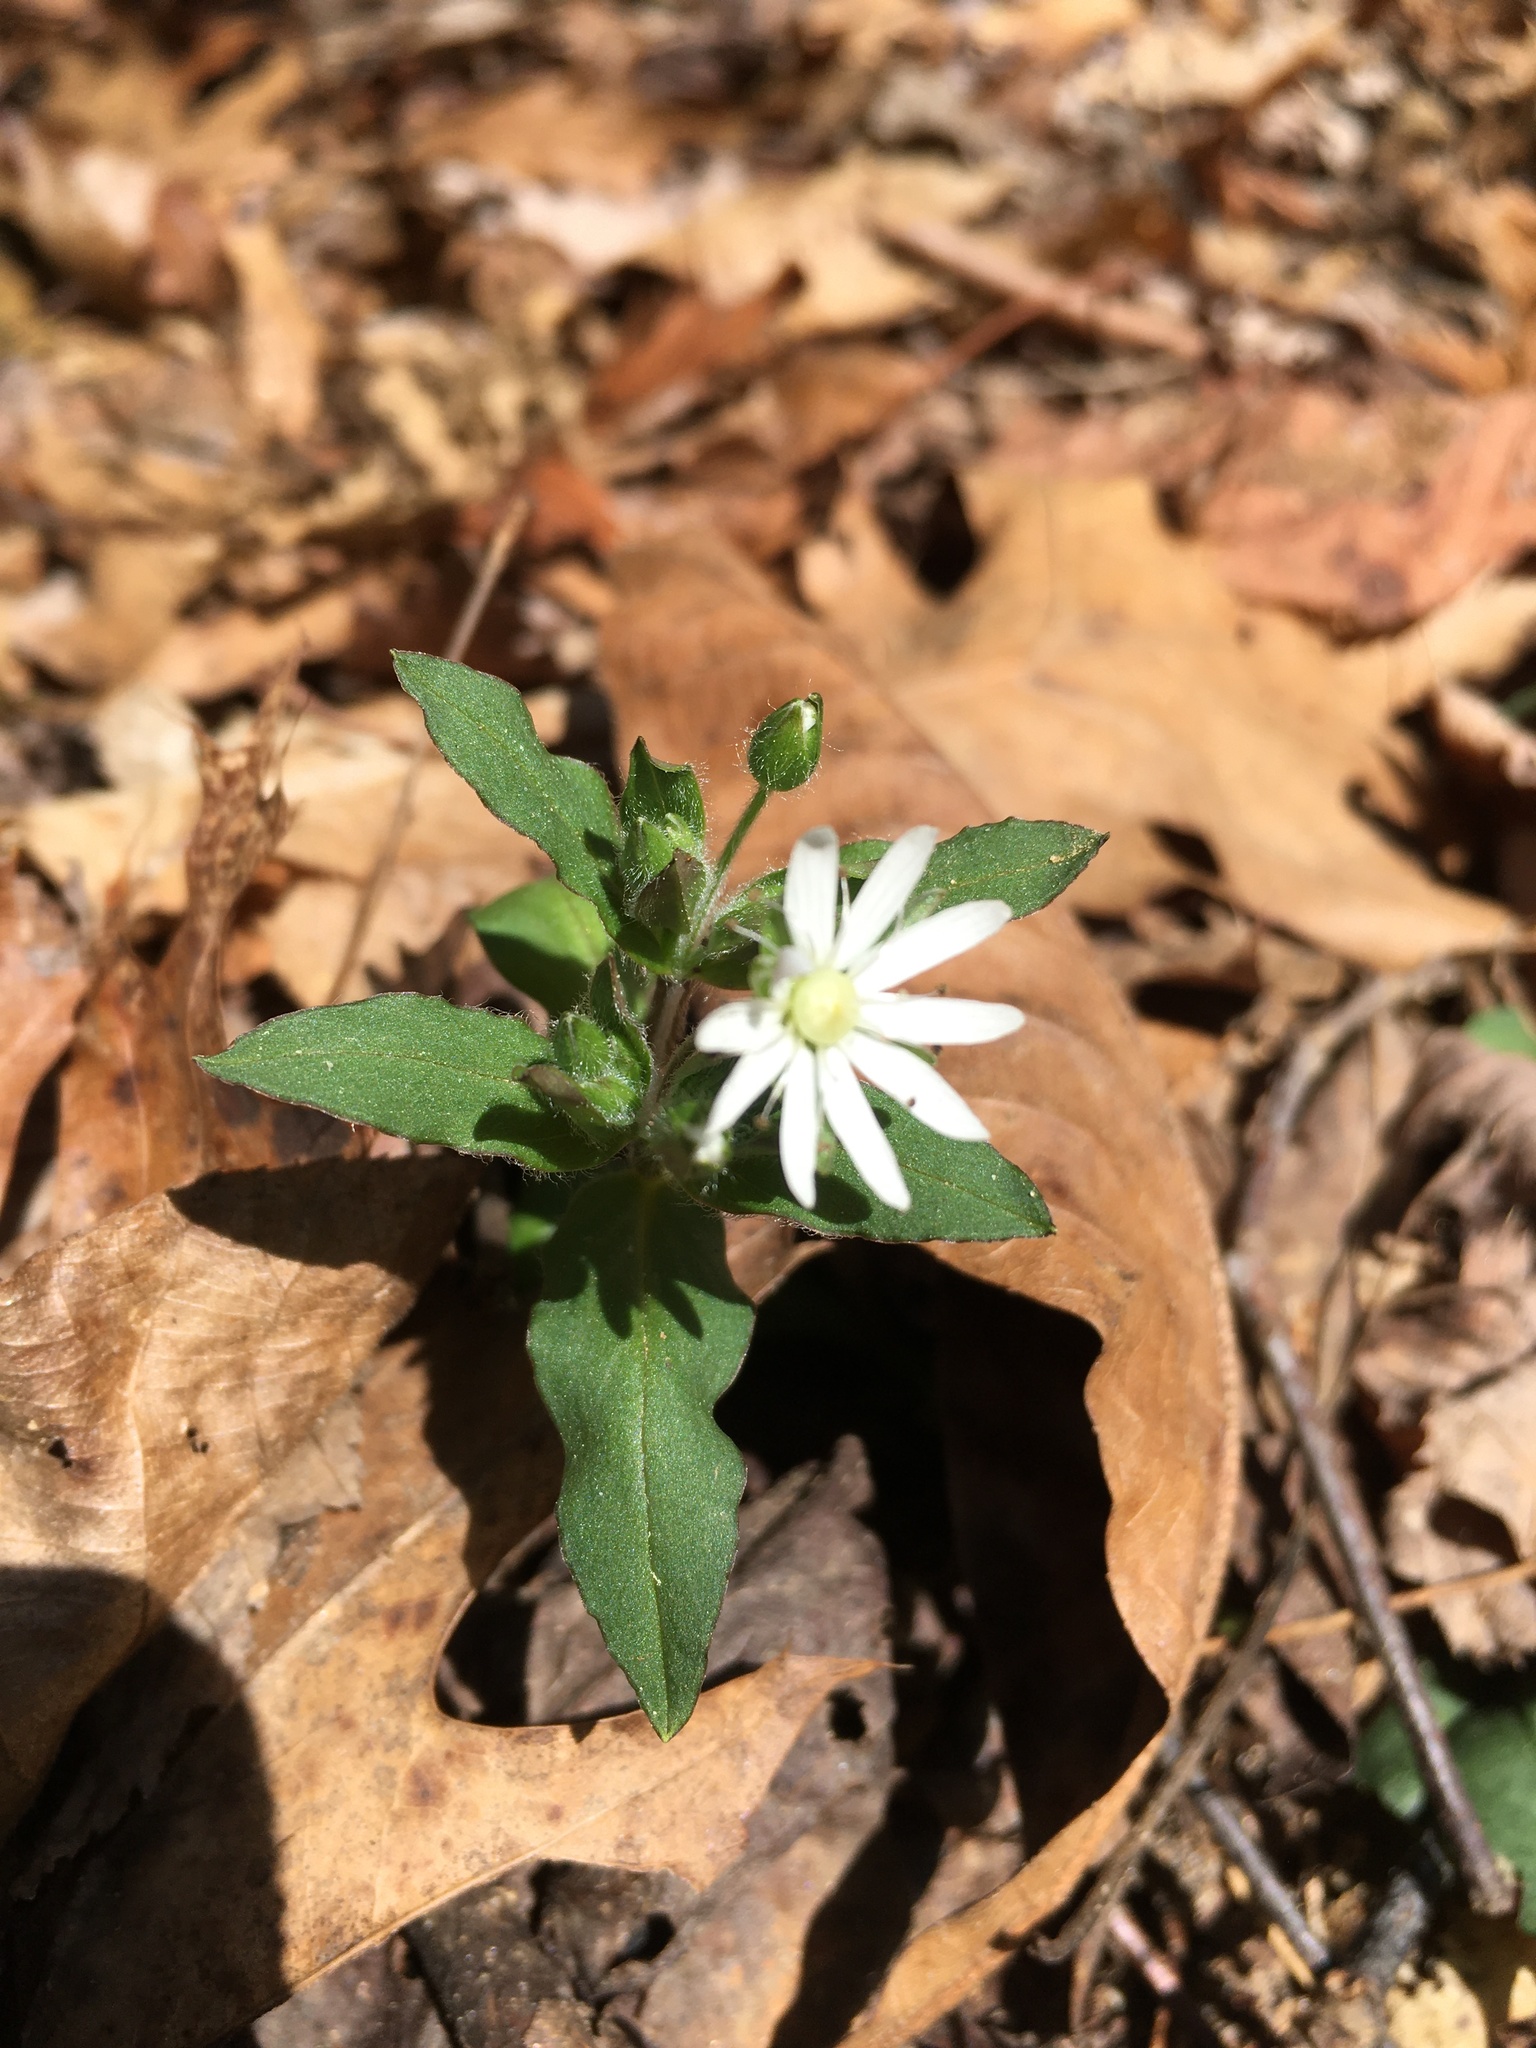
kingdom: Plantae
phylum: Tracheophyta
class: Magnoliopsida
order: Caryophyllales
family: Caryophyllaceae
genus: Stellaria
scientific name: Stellaria pubera
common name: Star chickweed
